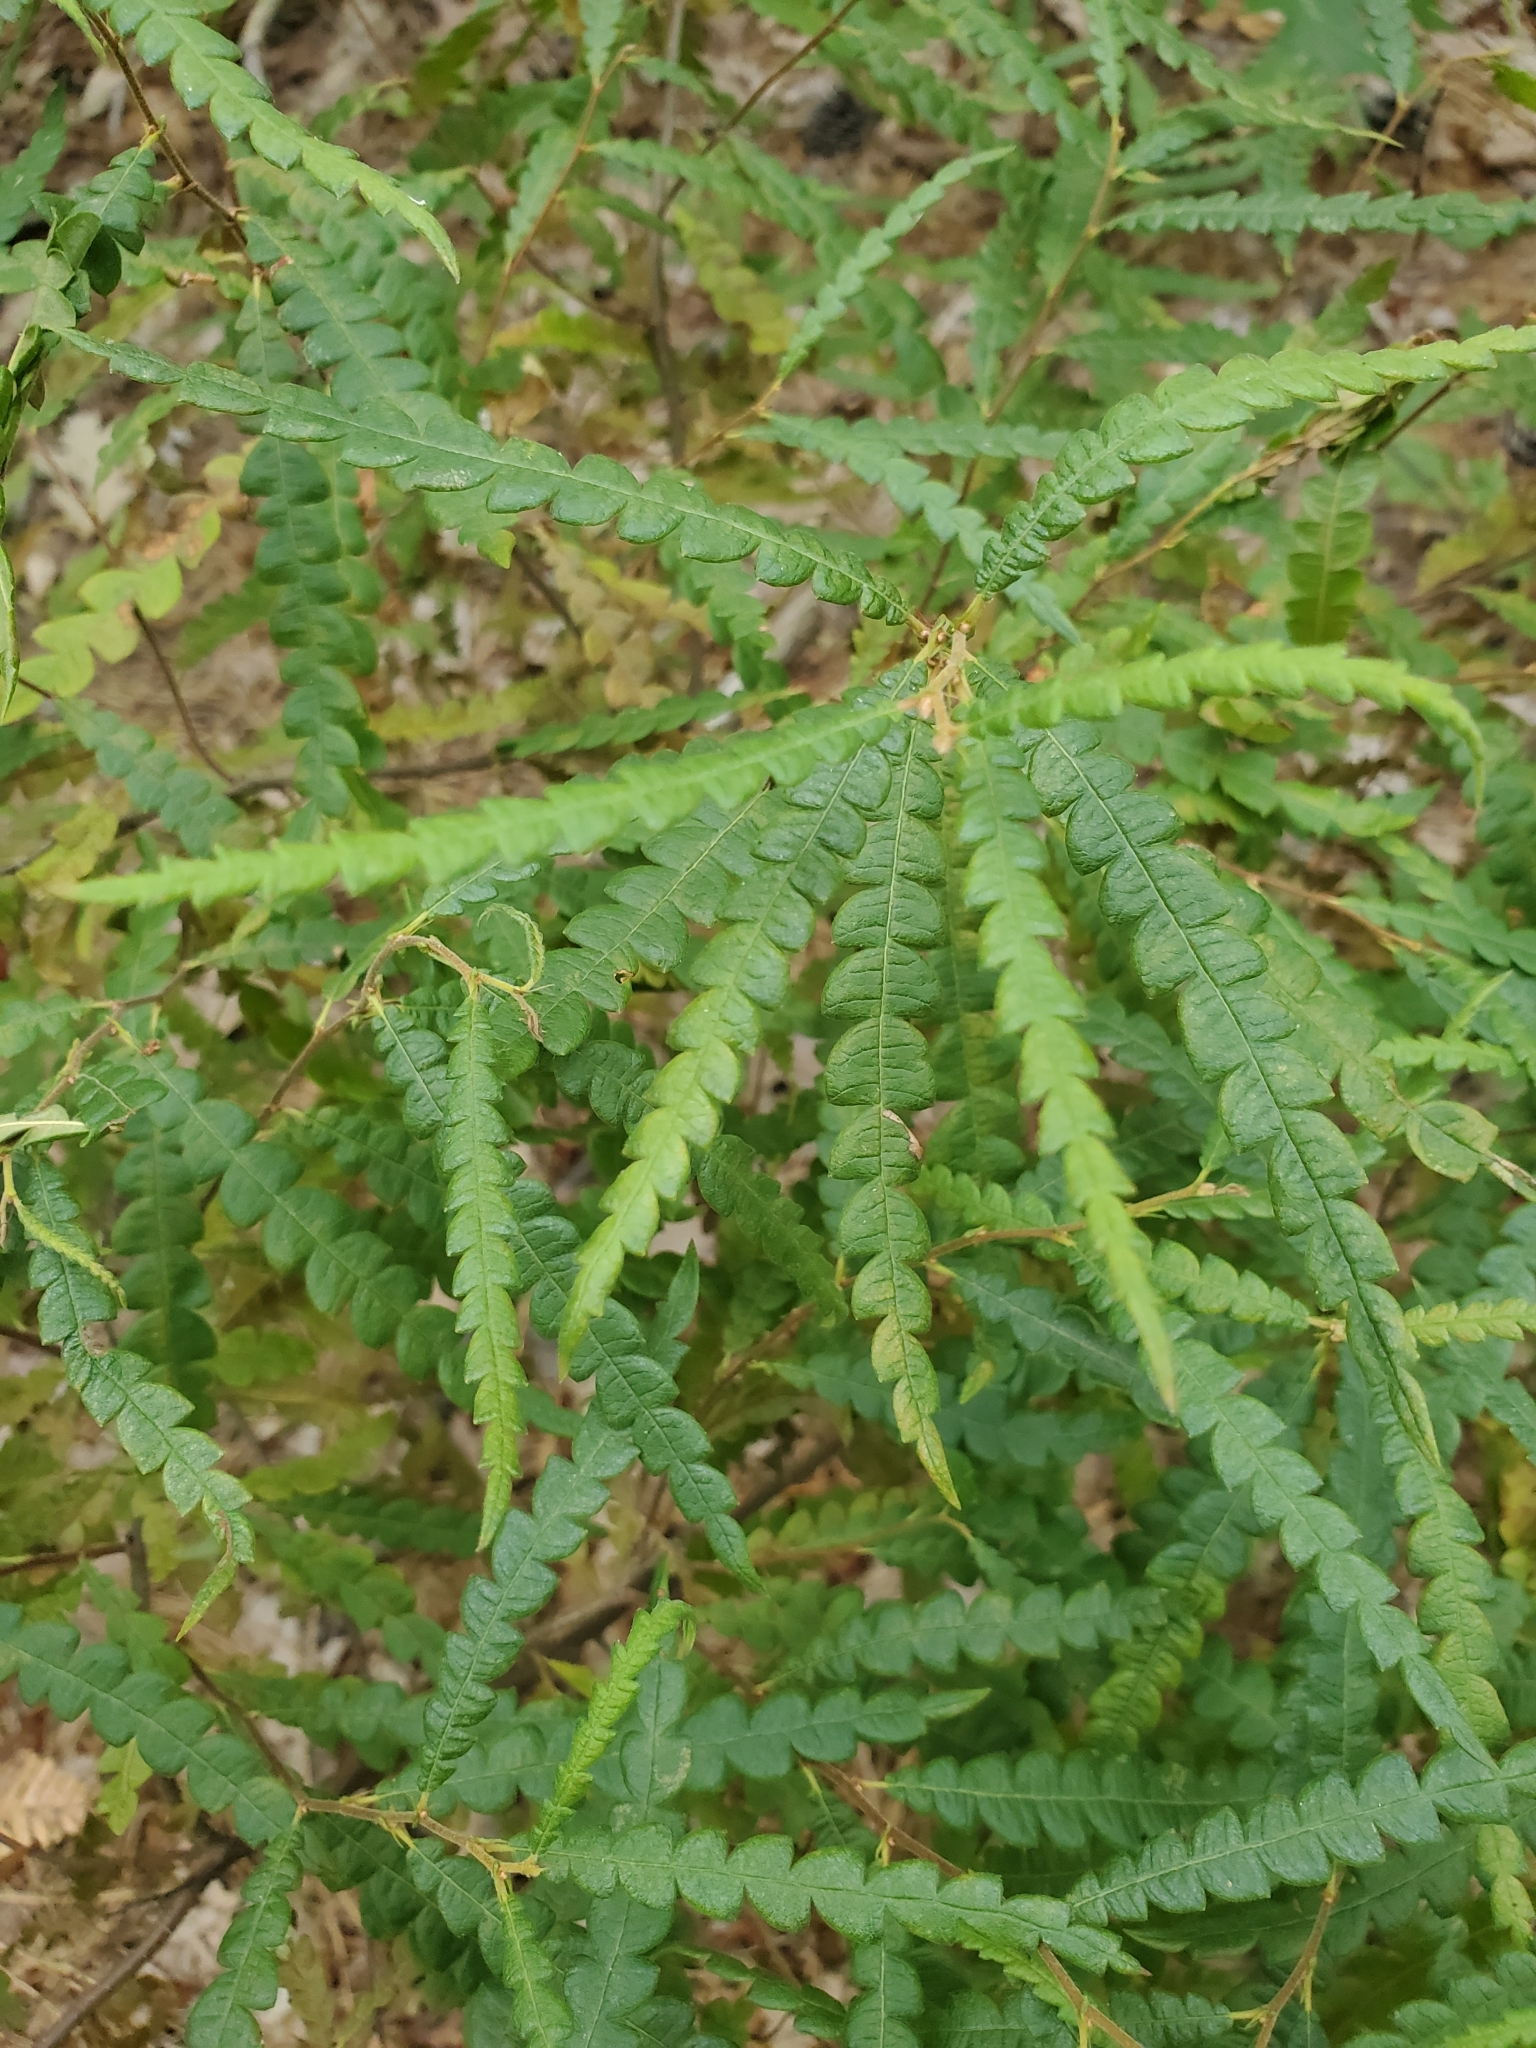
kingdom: Plantae
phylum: Tracheophyta
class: Magnoliopsida
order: Fagales
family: Myricaceae
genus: Comptonia
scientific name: Comptonia peregrina
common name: Sweet-fern
